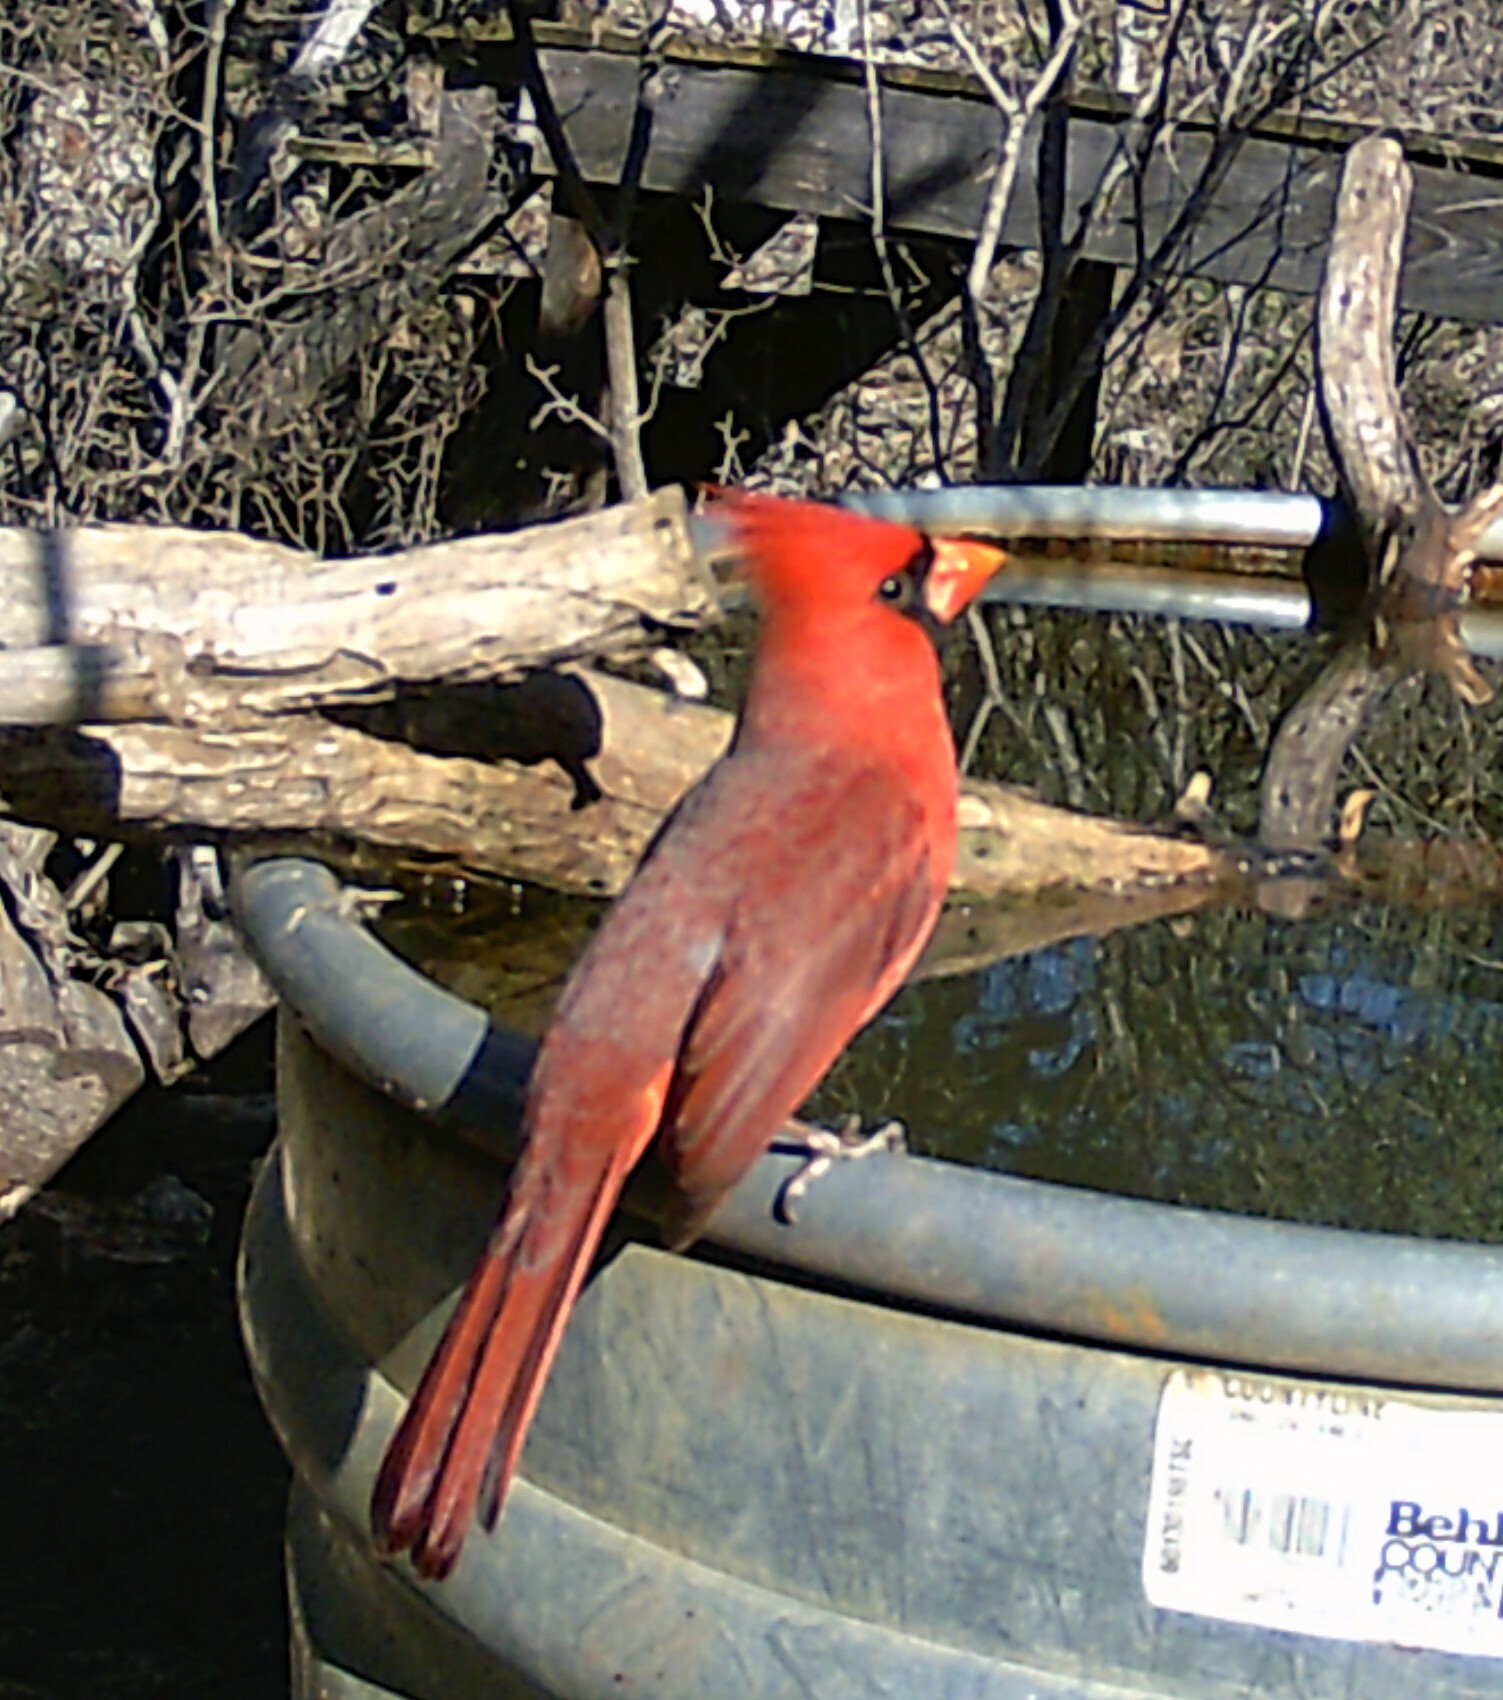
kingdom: Animalia
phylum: Chordata
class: Aves
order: Passeriformes
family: Cardinalidae
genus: Cardinalis
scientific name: Cardinalis cardinalis
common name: Northern cardinal
